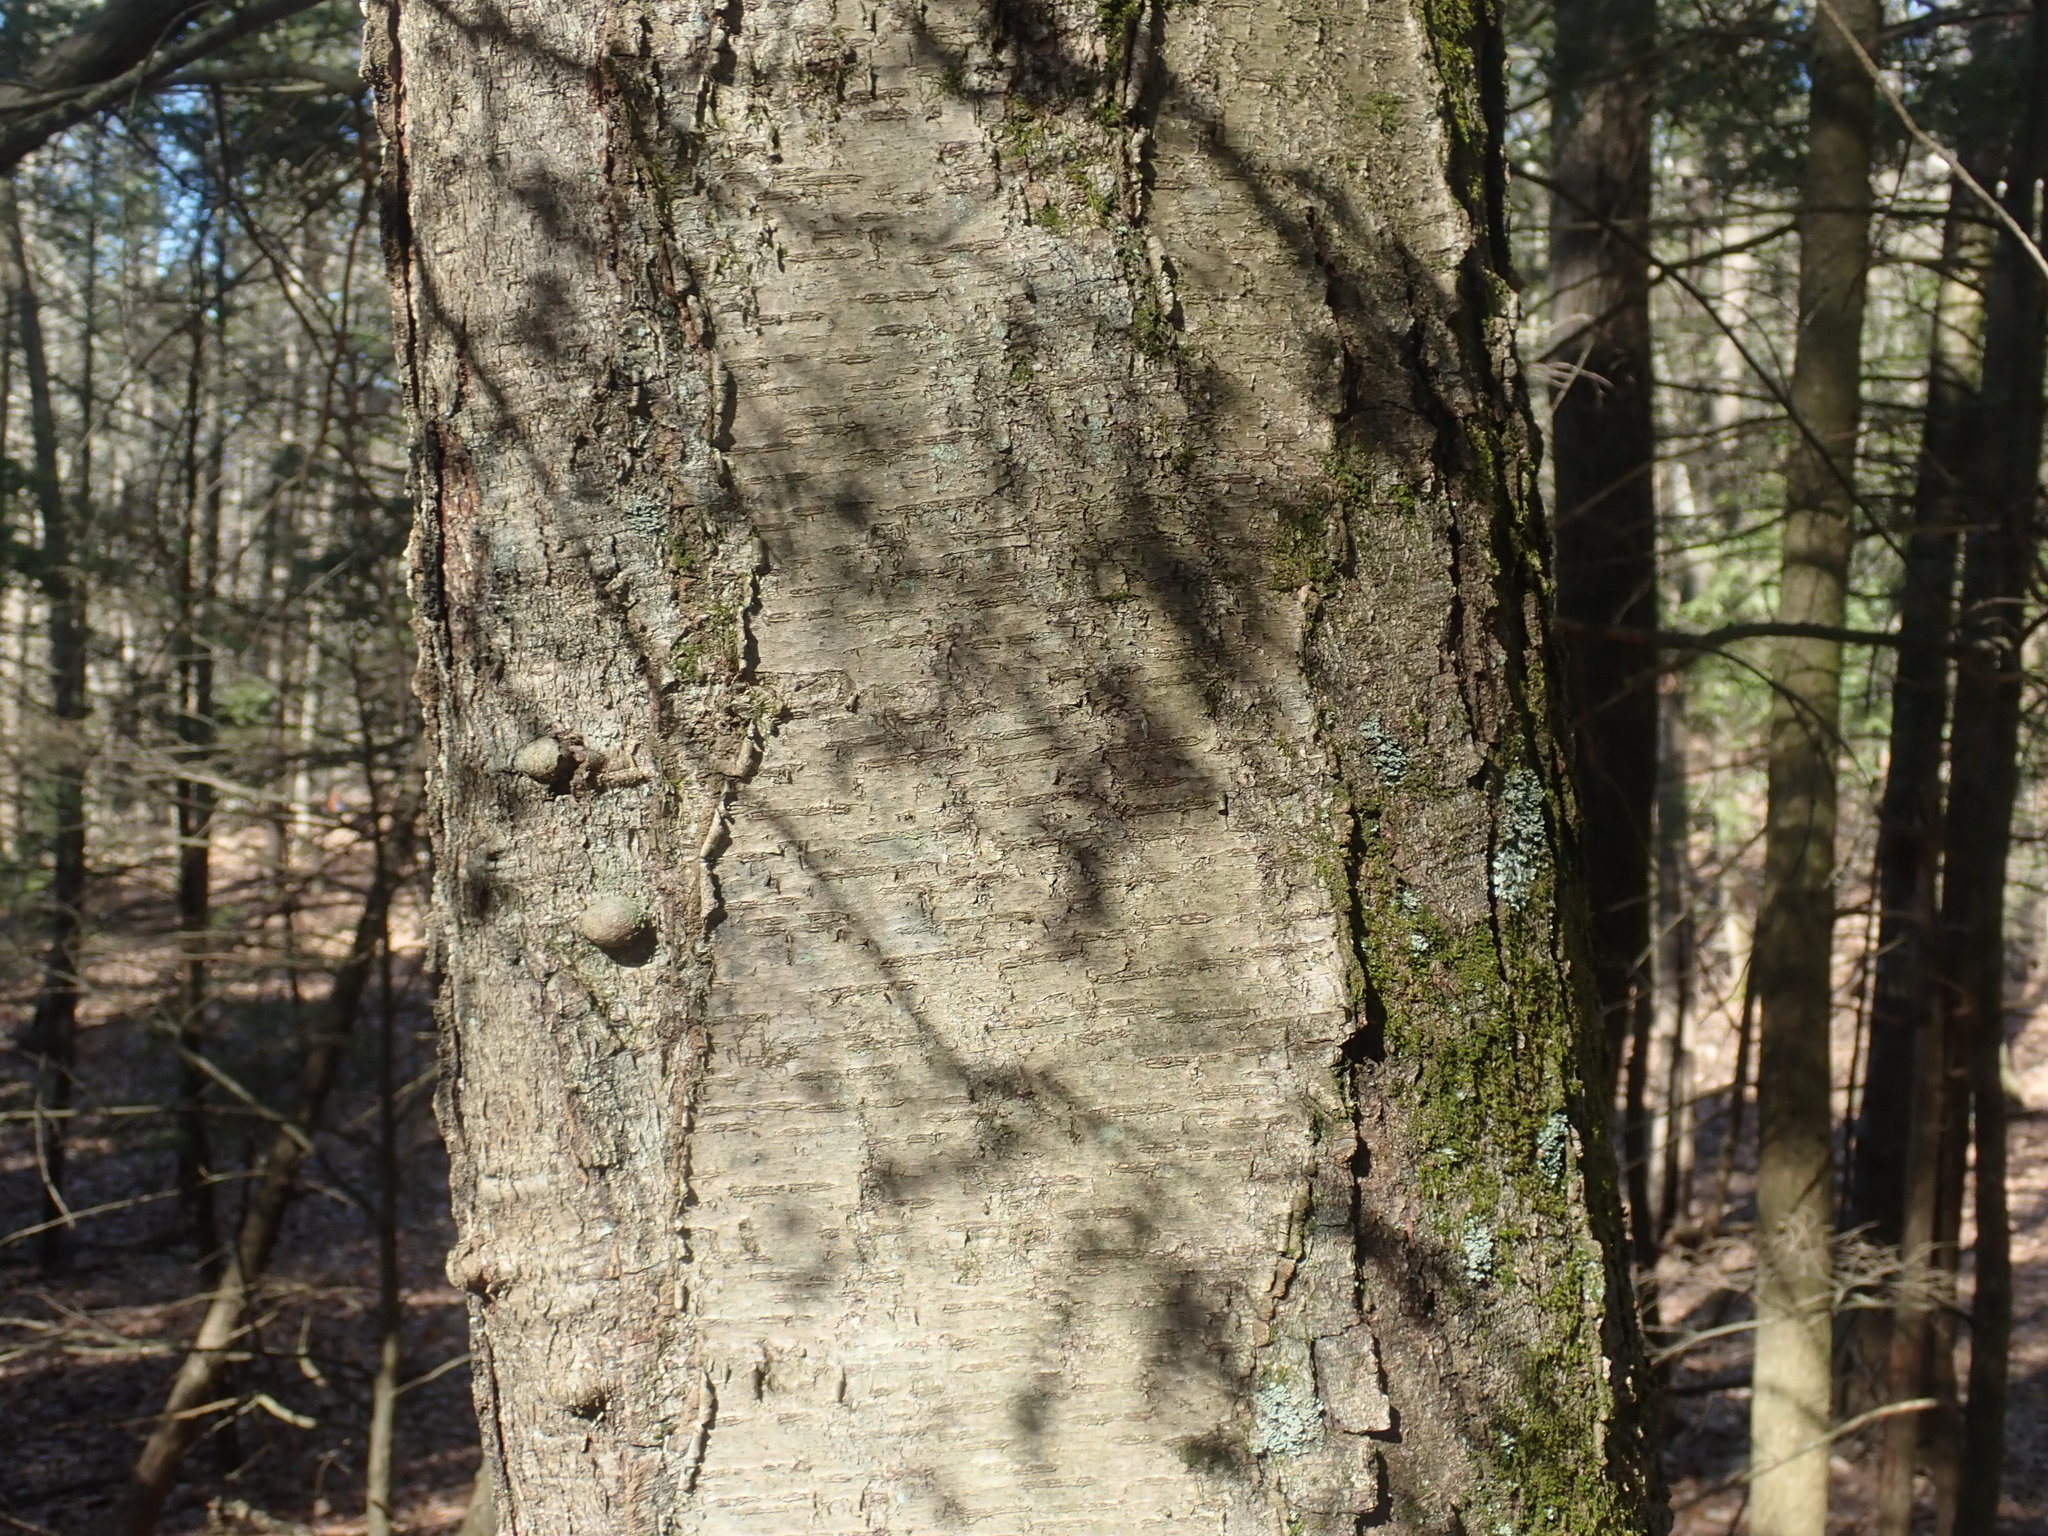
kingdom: Plantae
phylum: Tracheophyta
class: Magnoliopsida
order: Fagales
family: Betulaceae
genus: Betula
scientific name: Betula lenta
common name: Black birch
